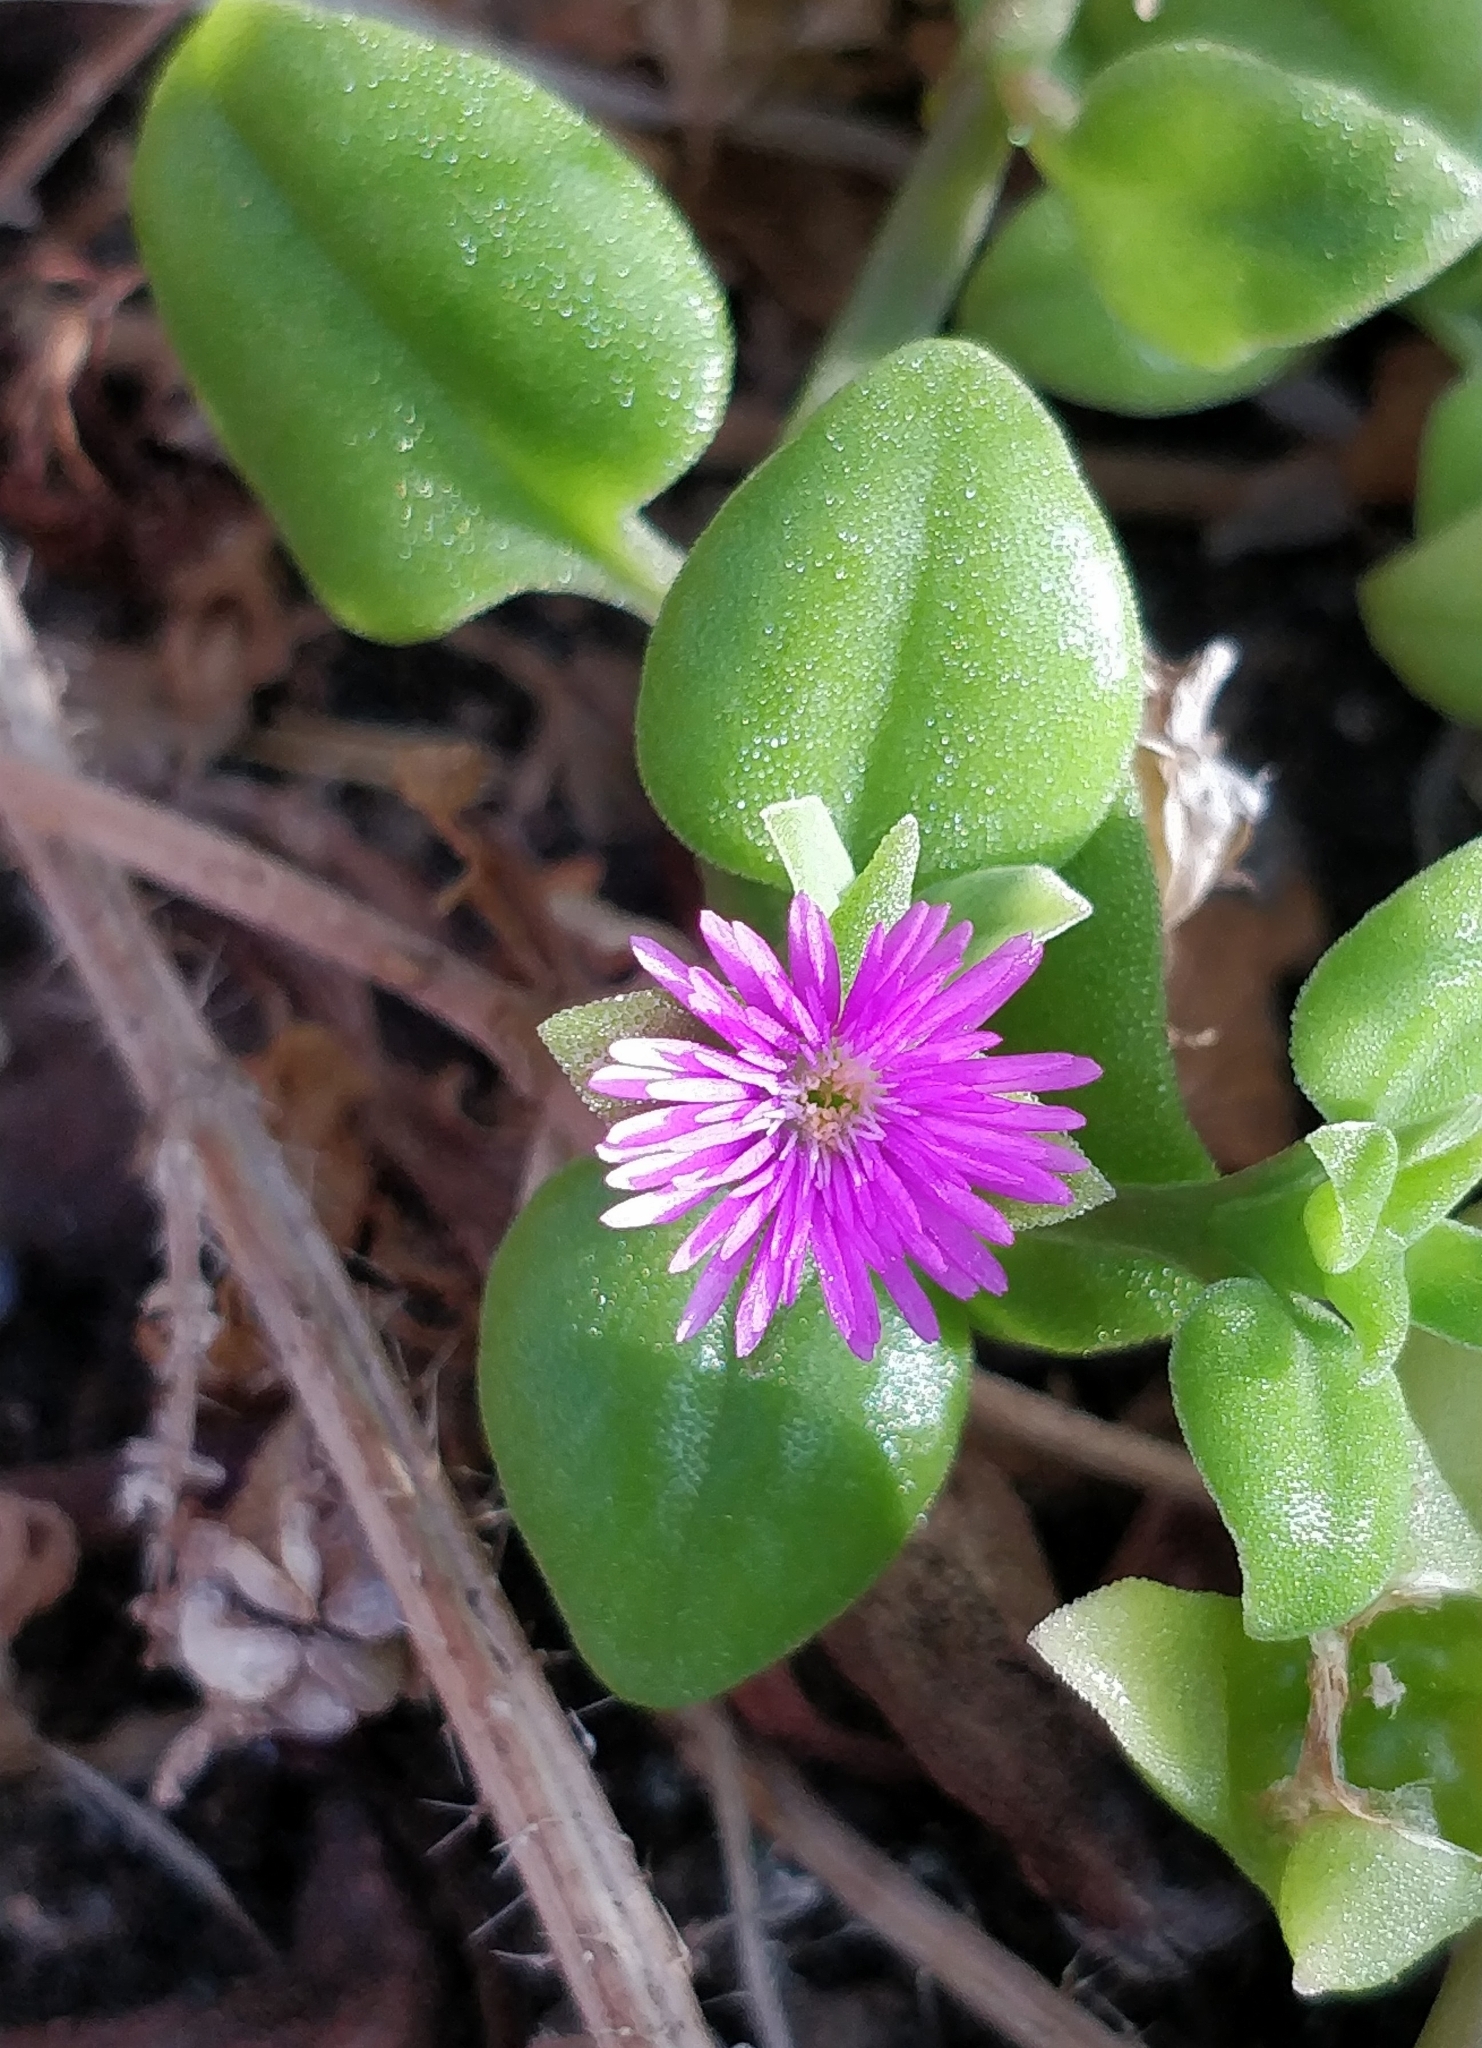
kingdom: Plantae
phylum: Tracheophyta
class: Magnoliopsida
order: Caryophyllales
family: Aizoaceae
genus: Mesembryanthemum
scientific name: Mesembryanthemum cordifolium
